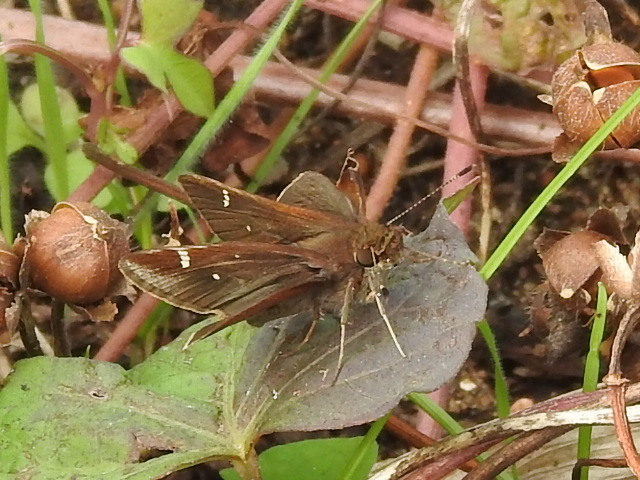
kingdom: Animalia
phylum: Arthropoda
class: Insecta
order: Lepidoptera
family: Hesperiidae
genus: Lerema
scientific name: Lerema accius
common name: Clouded skipper
